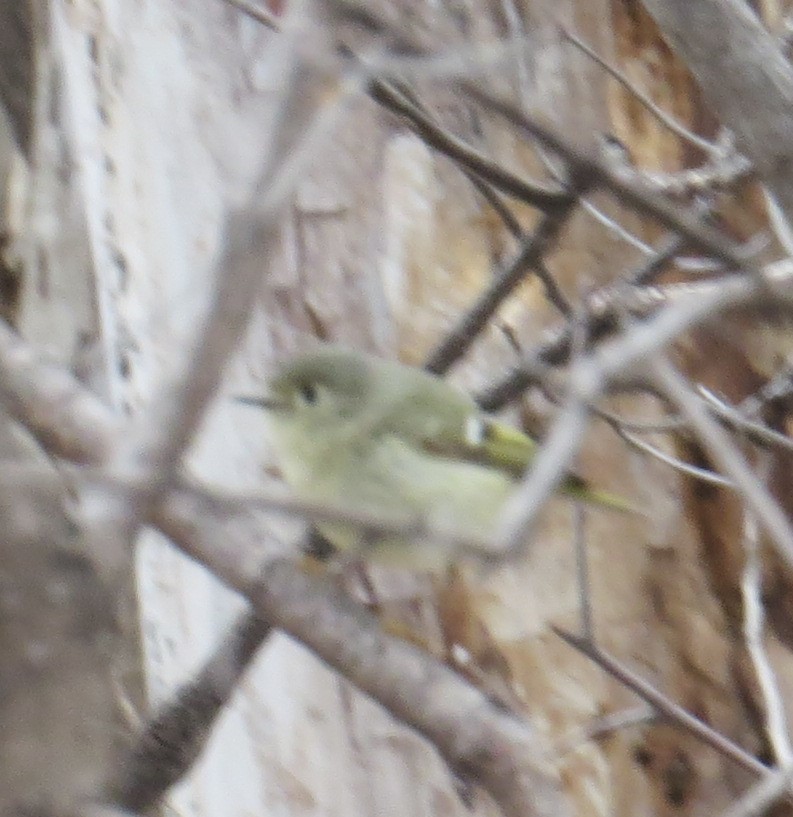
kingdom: Animalia
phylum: Chordata
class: Aves
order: Passeriformes
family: Regulidae
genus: Regulus
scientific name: Regulus calendula
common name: Ruby-crowned kinglet
